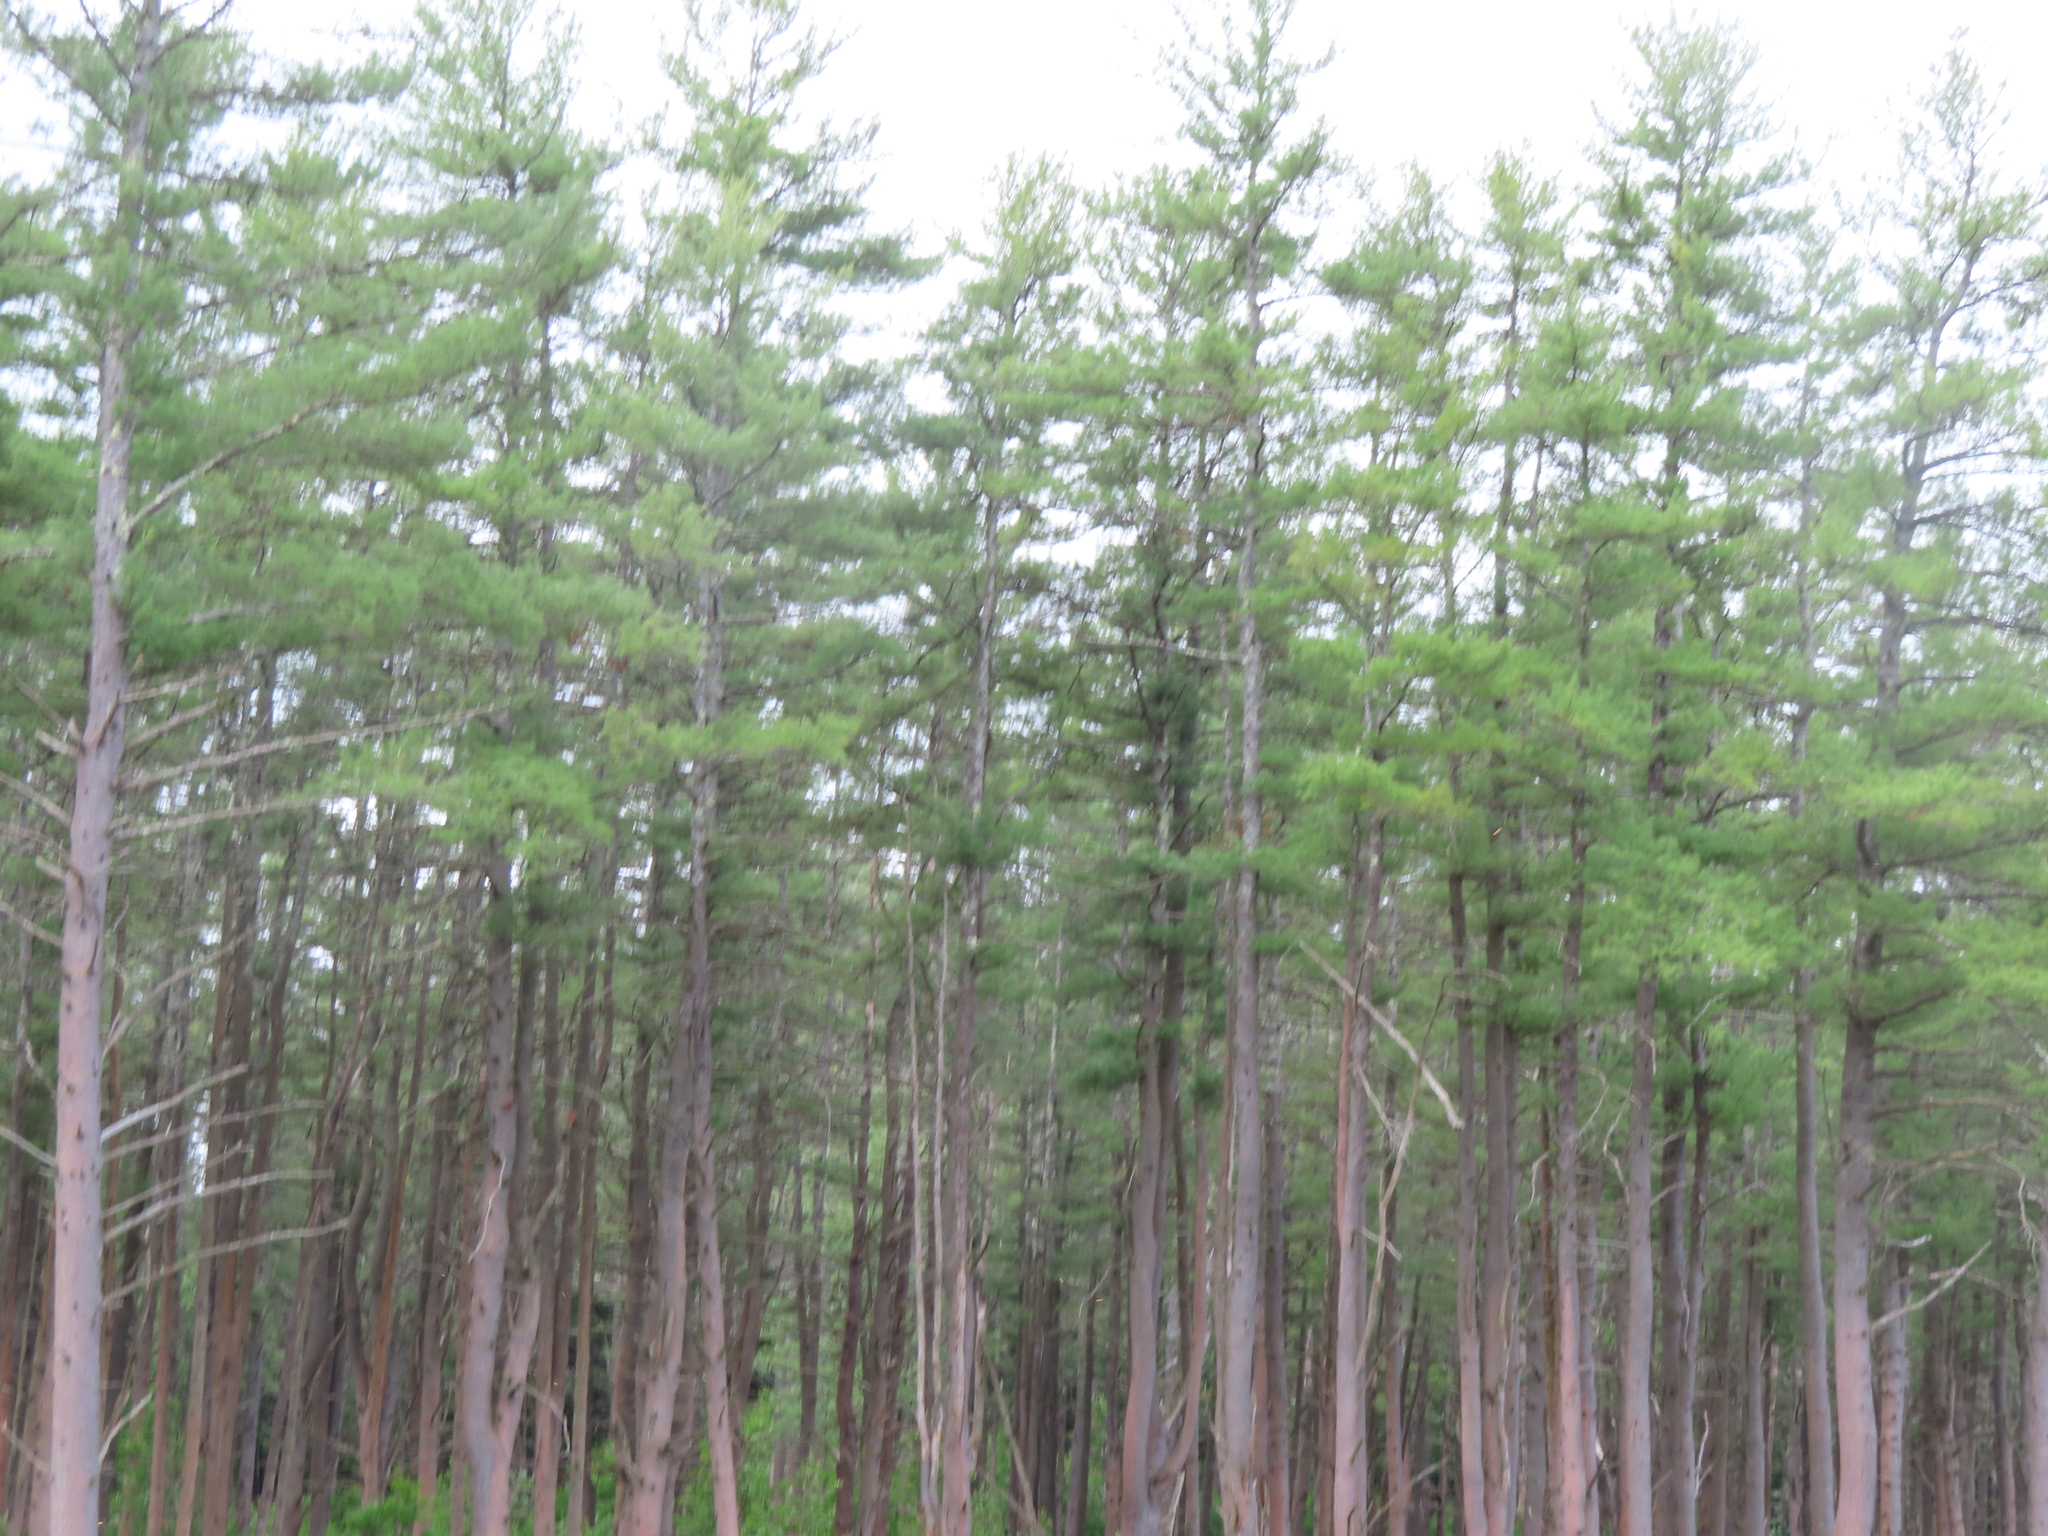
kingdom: Plantae
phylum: Tracheophyta
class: Pinopsida
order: Pinales
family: Pinaceae
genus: Pinus
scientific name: Pinus strobus
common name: Weymouth pine
